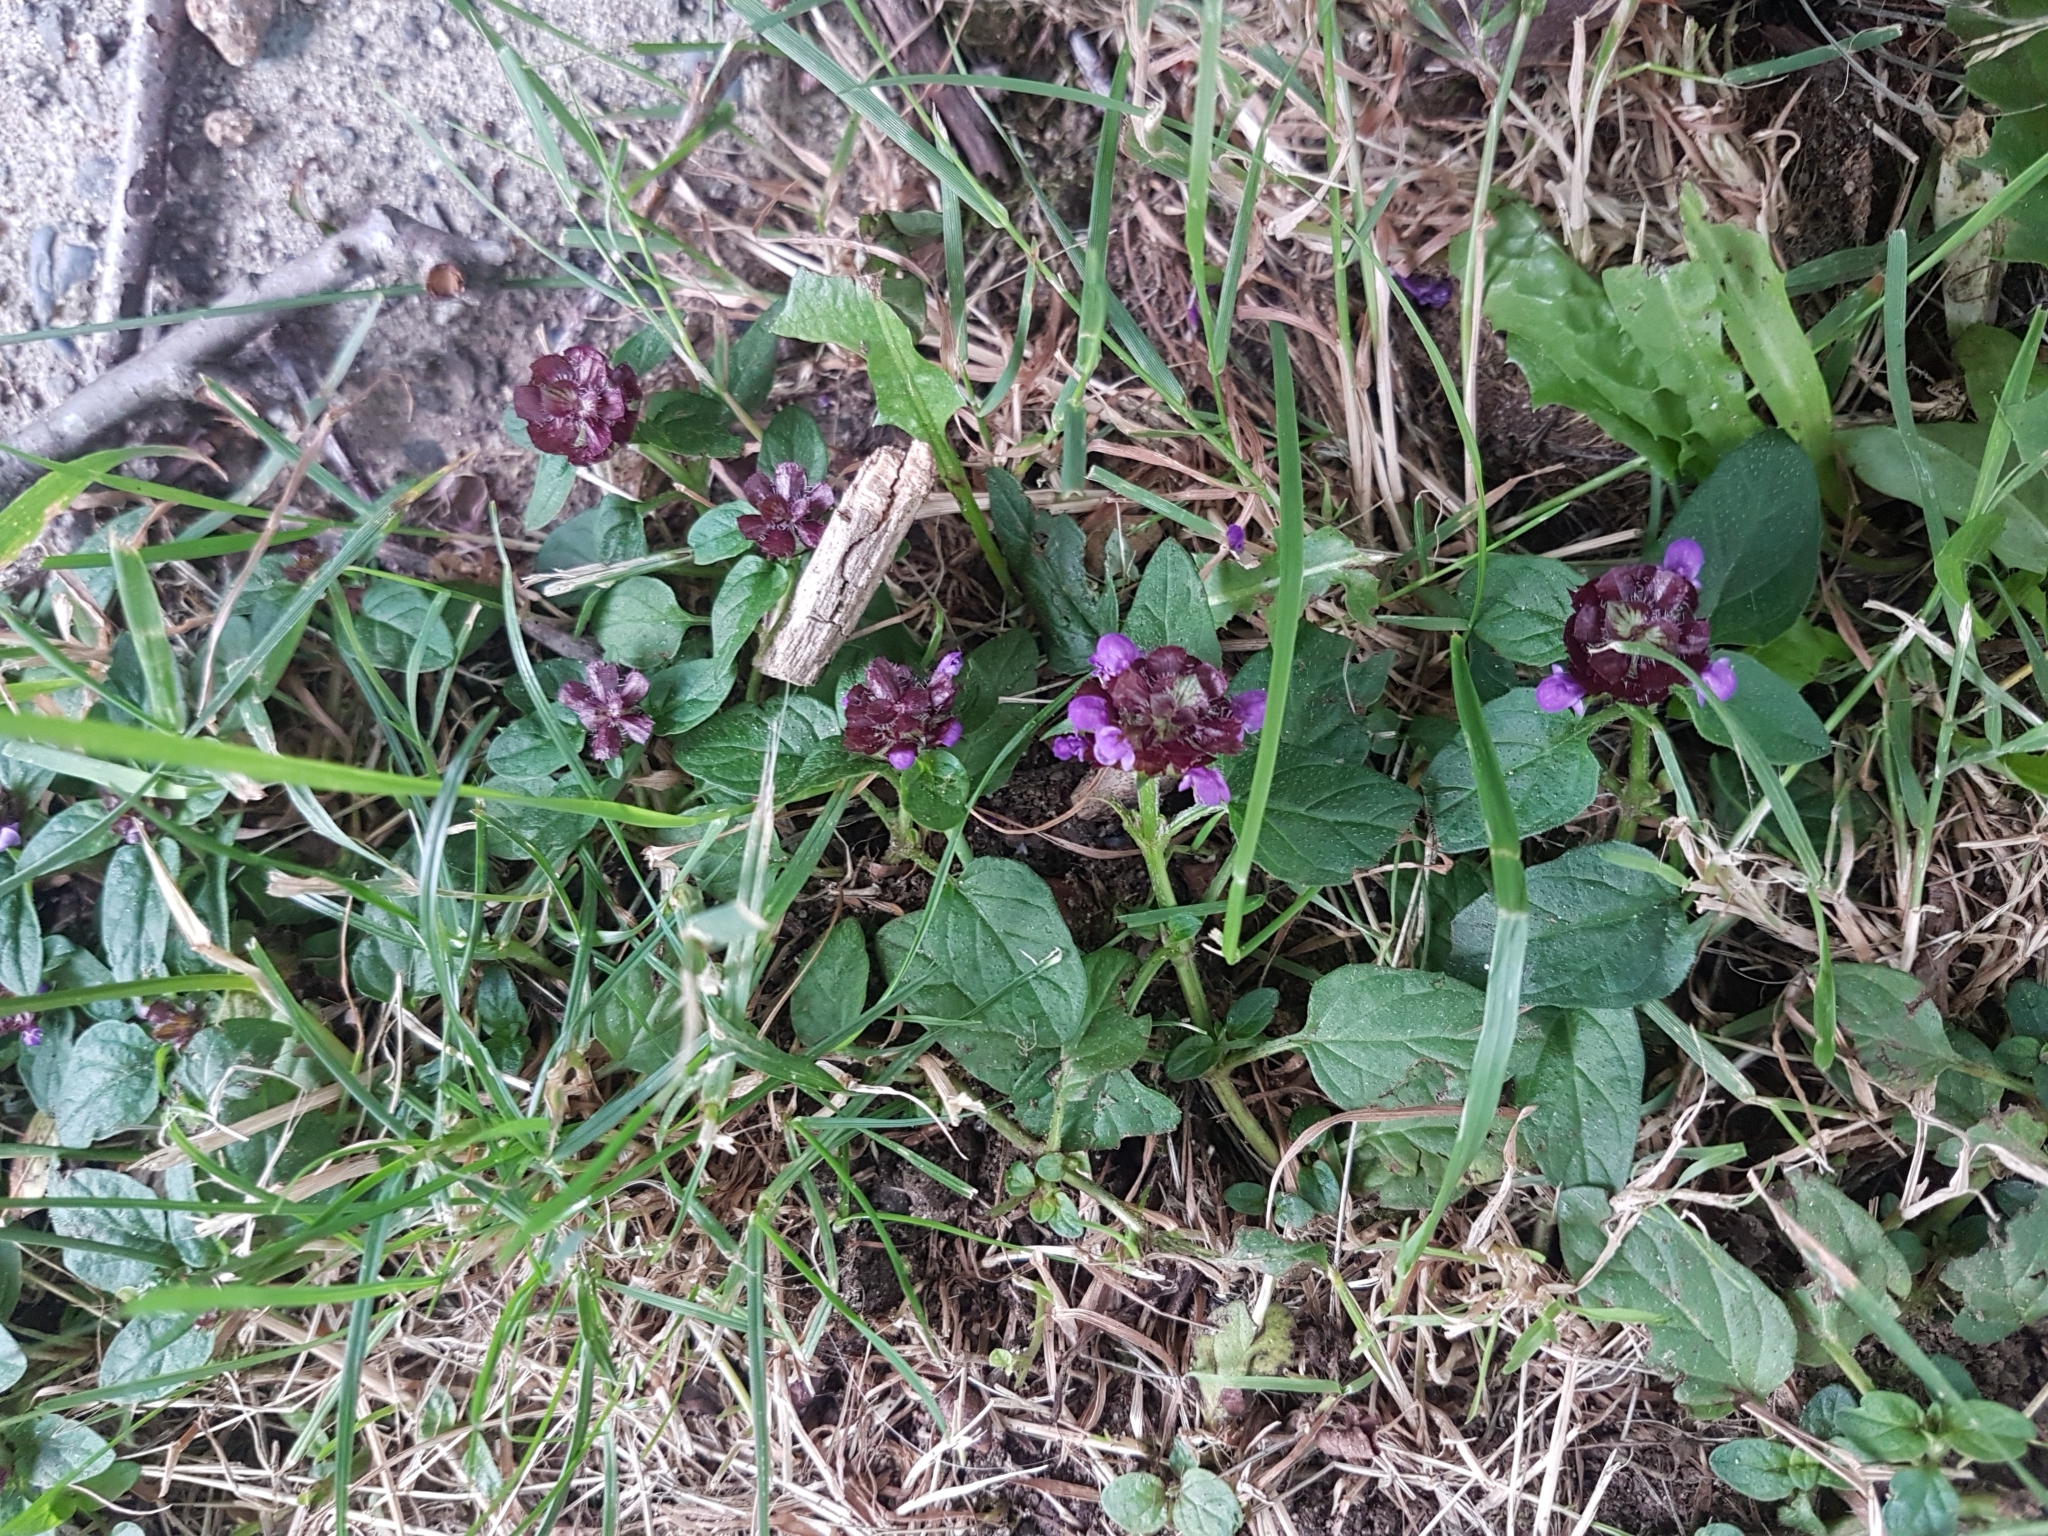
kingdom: Plantae
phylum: Tracheophyta
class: Magnoliopsida
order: Lamiales
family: Lamiaceae
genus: Prunella
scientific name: Prunella vulgaris
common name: Heal-all
